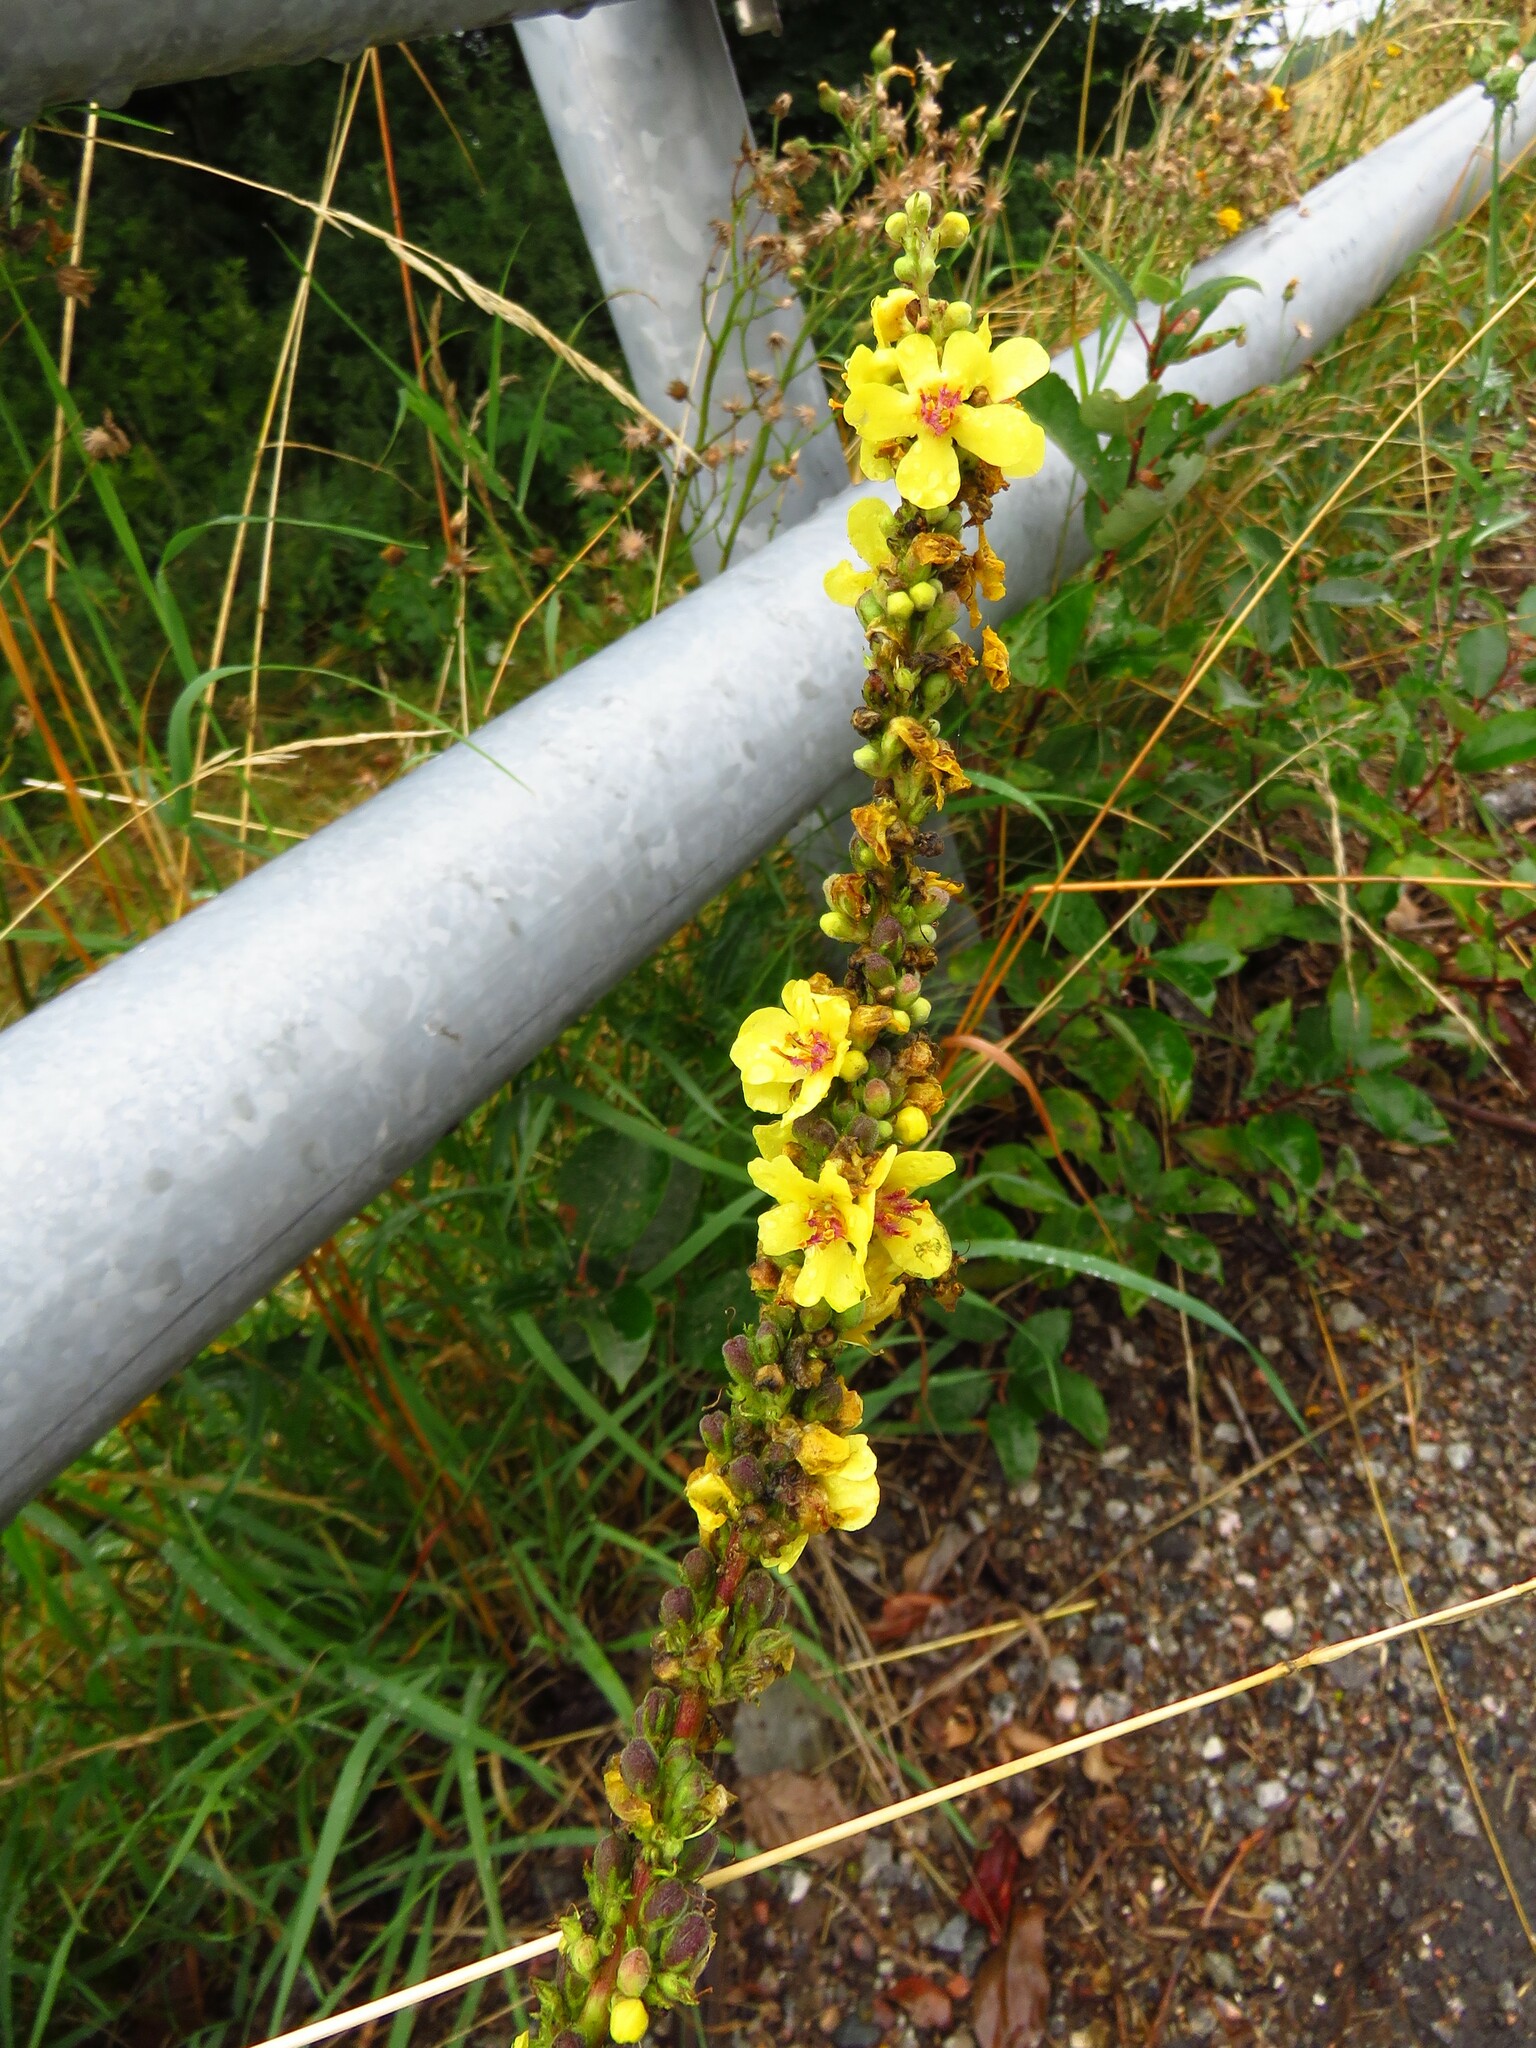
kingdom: Plantae
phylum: Tracheophyta
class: Magnoliopsida
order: Lamiales
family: Scrophulariaceae
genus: Verbascum
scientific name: Verbascum nigrum
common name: Dark mullein
